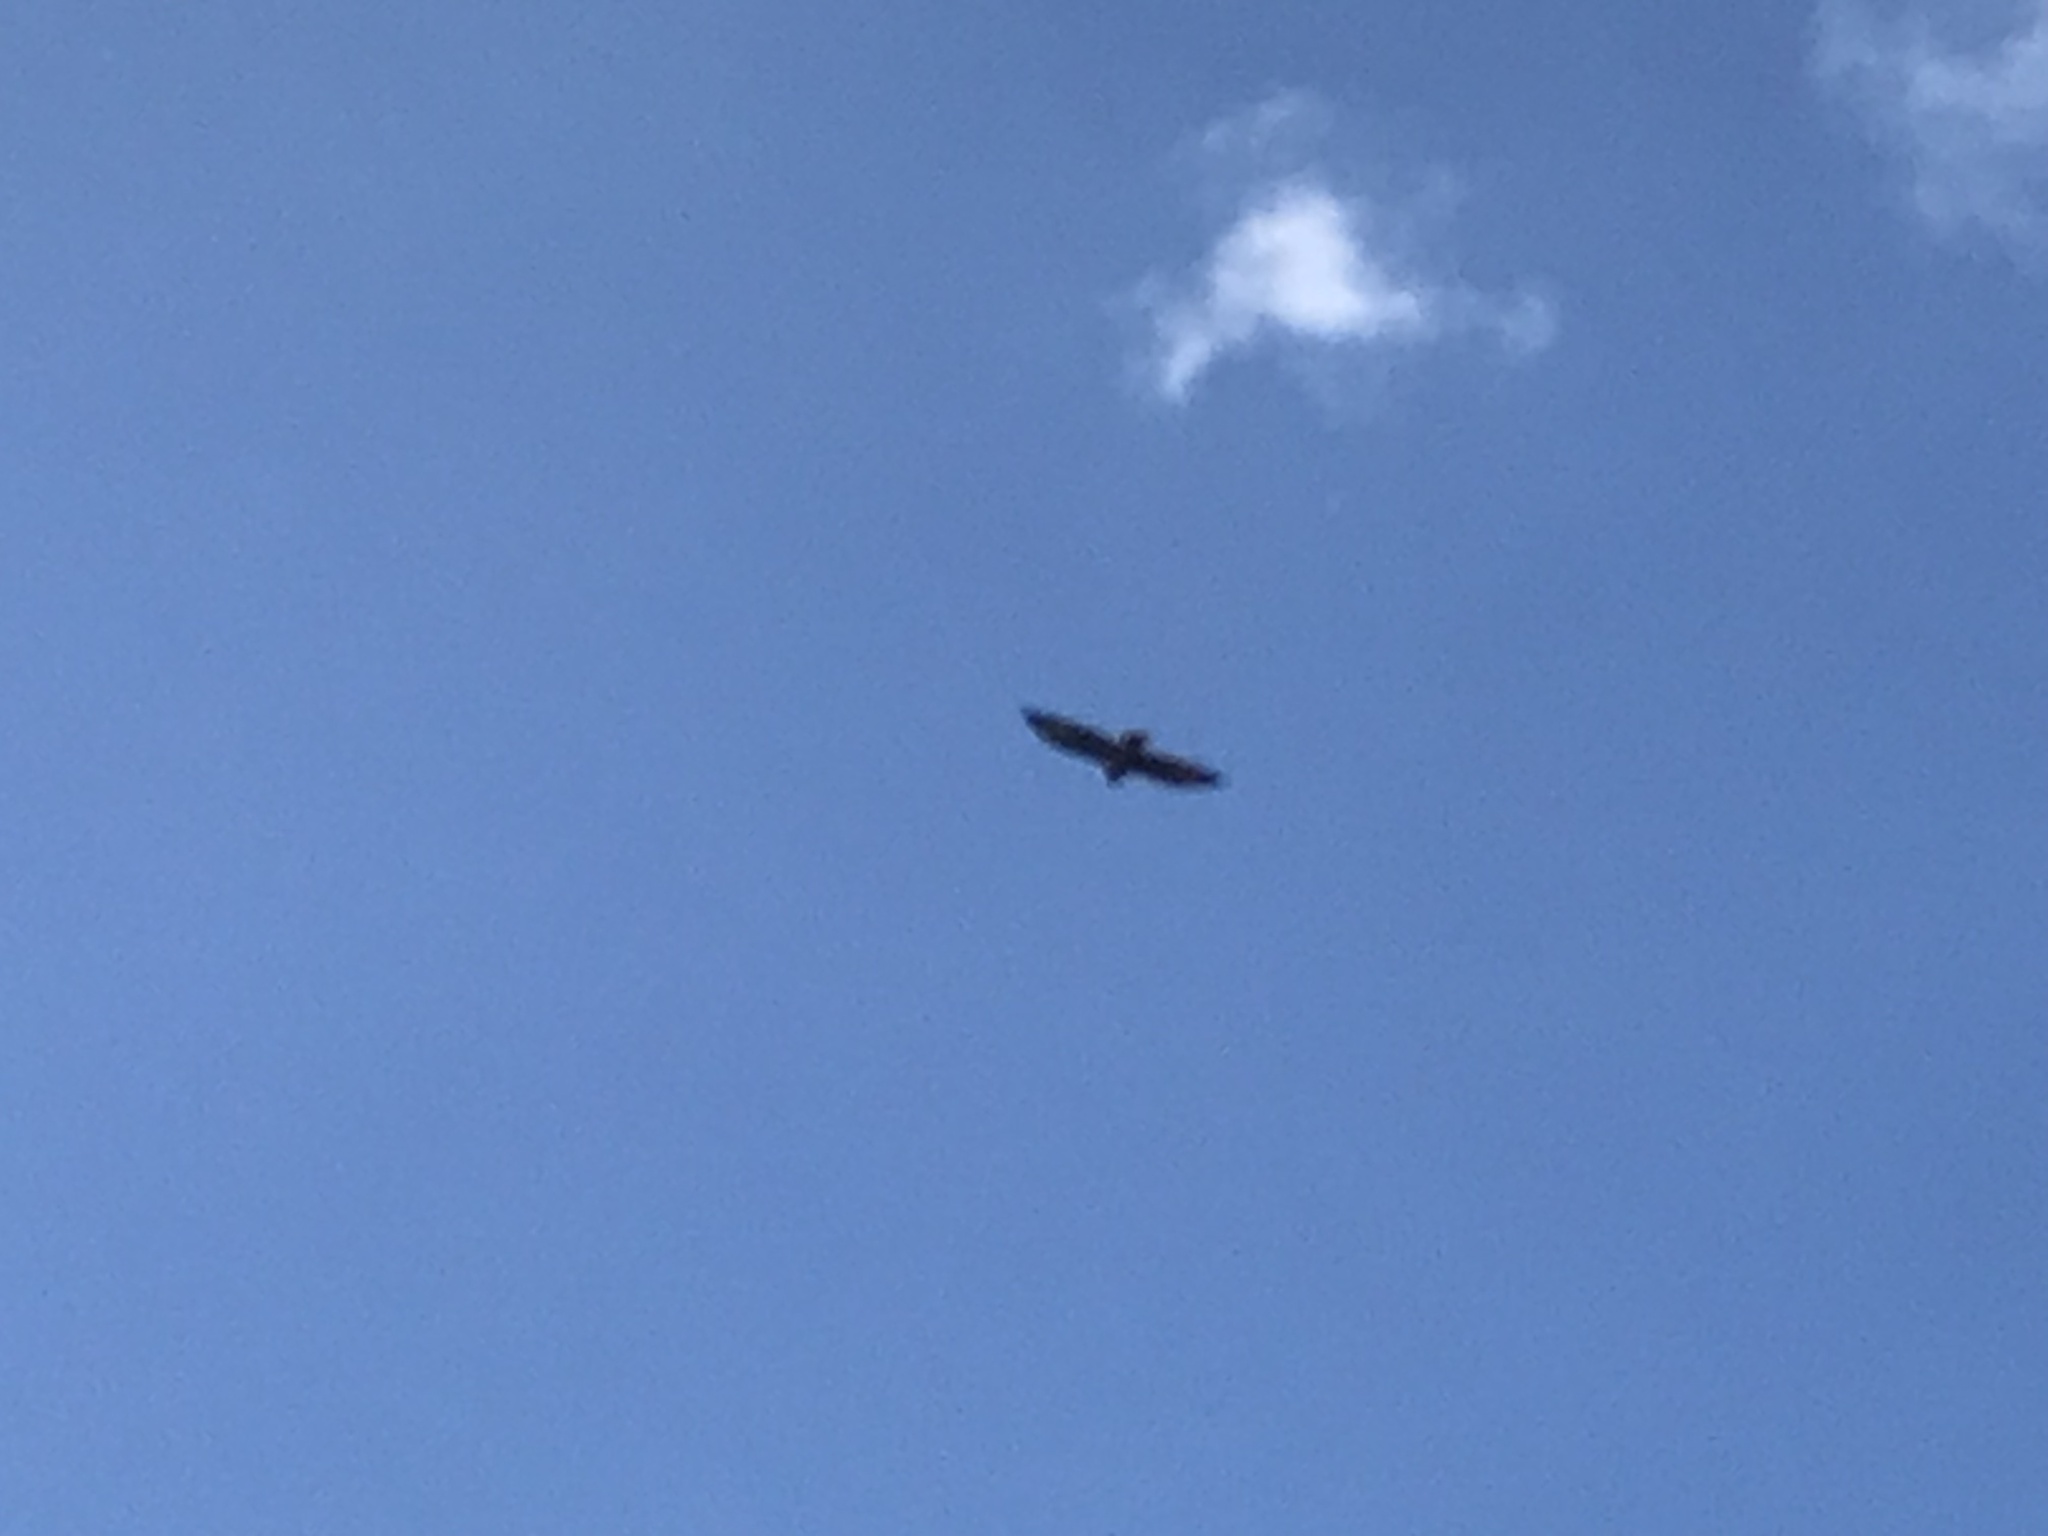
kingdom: Animalia
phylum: Chordata
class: Aves
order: Accipitriformes
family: Accipitridae
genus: Buteo
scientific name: Buteo buteo
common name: Common buzzard
